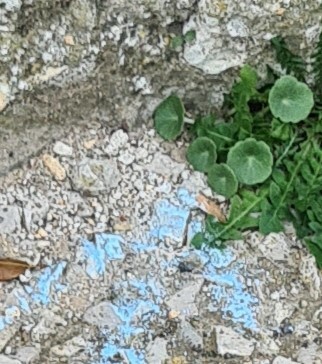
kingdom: Plantae
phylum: Tracheophyta
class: Magnoliopsida
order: Saxifragales
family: Crassulaceae
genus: Umbilicus
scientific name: Umbilicus rupestris
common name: Navelwort
